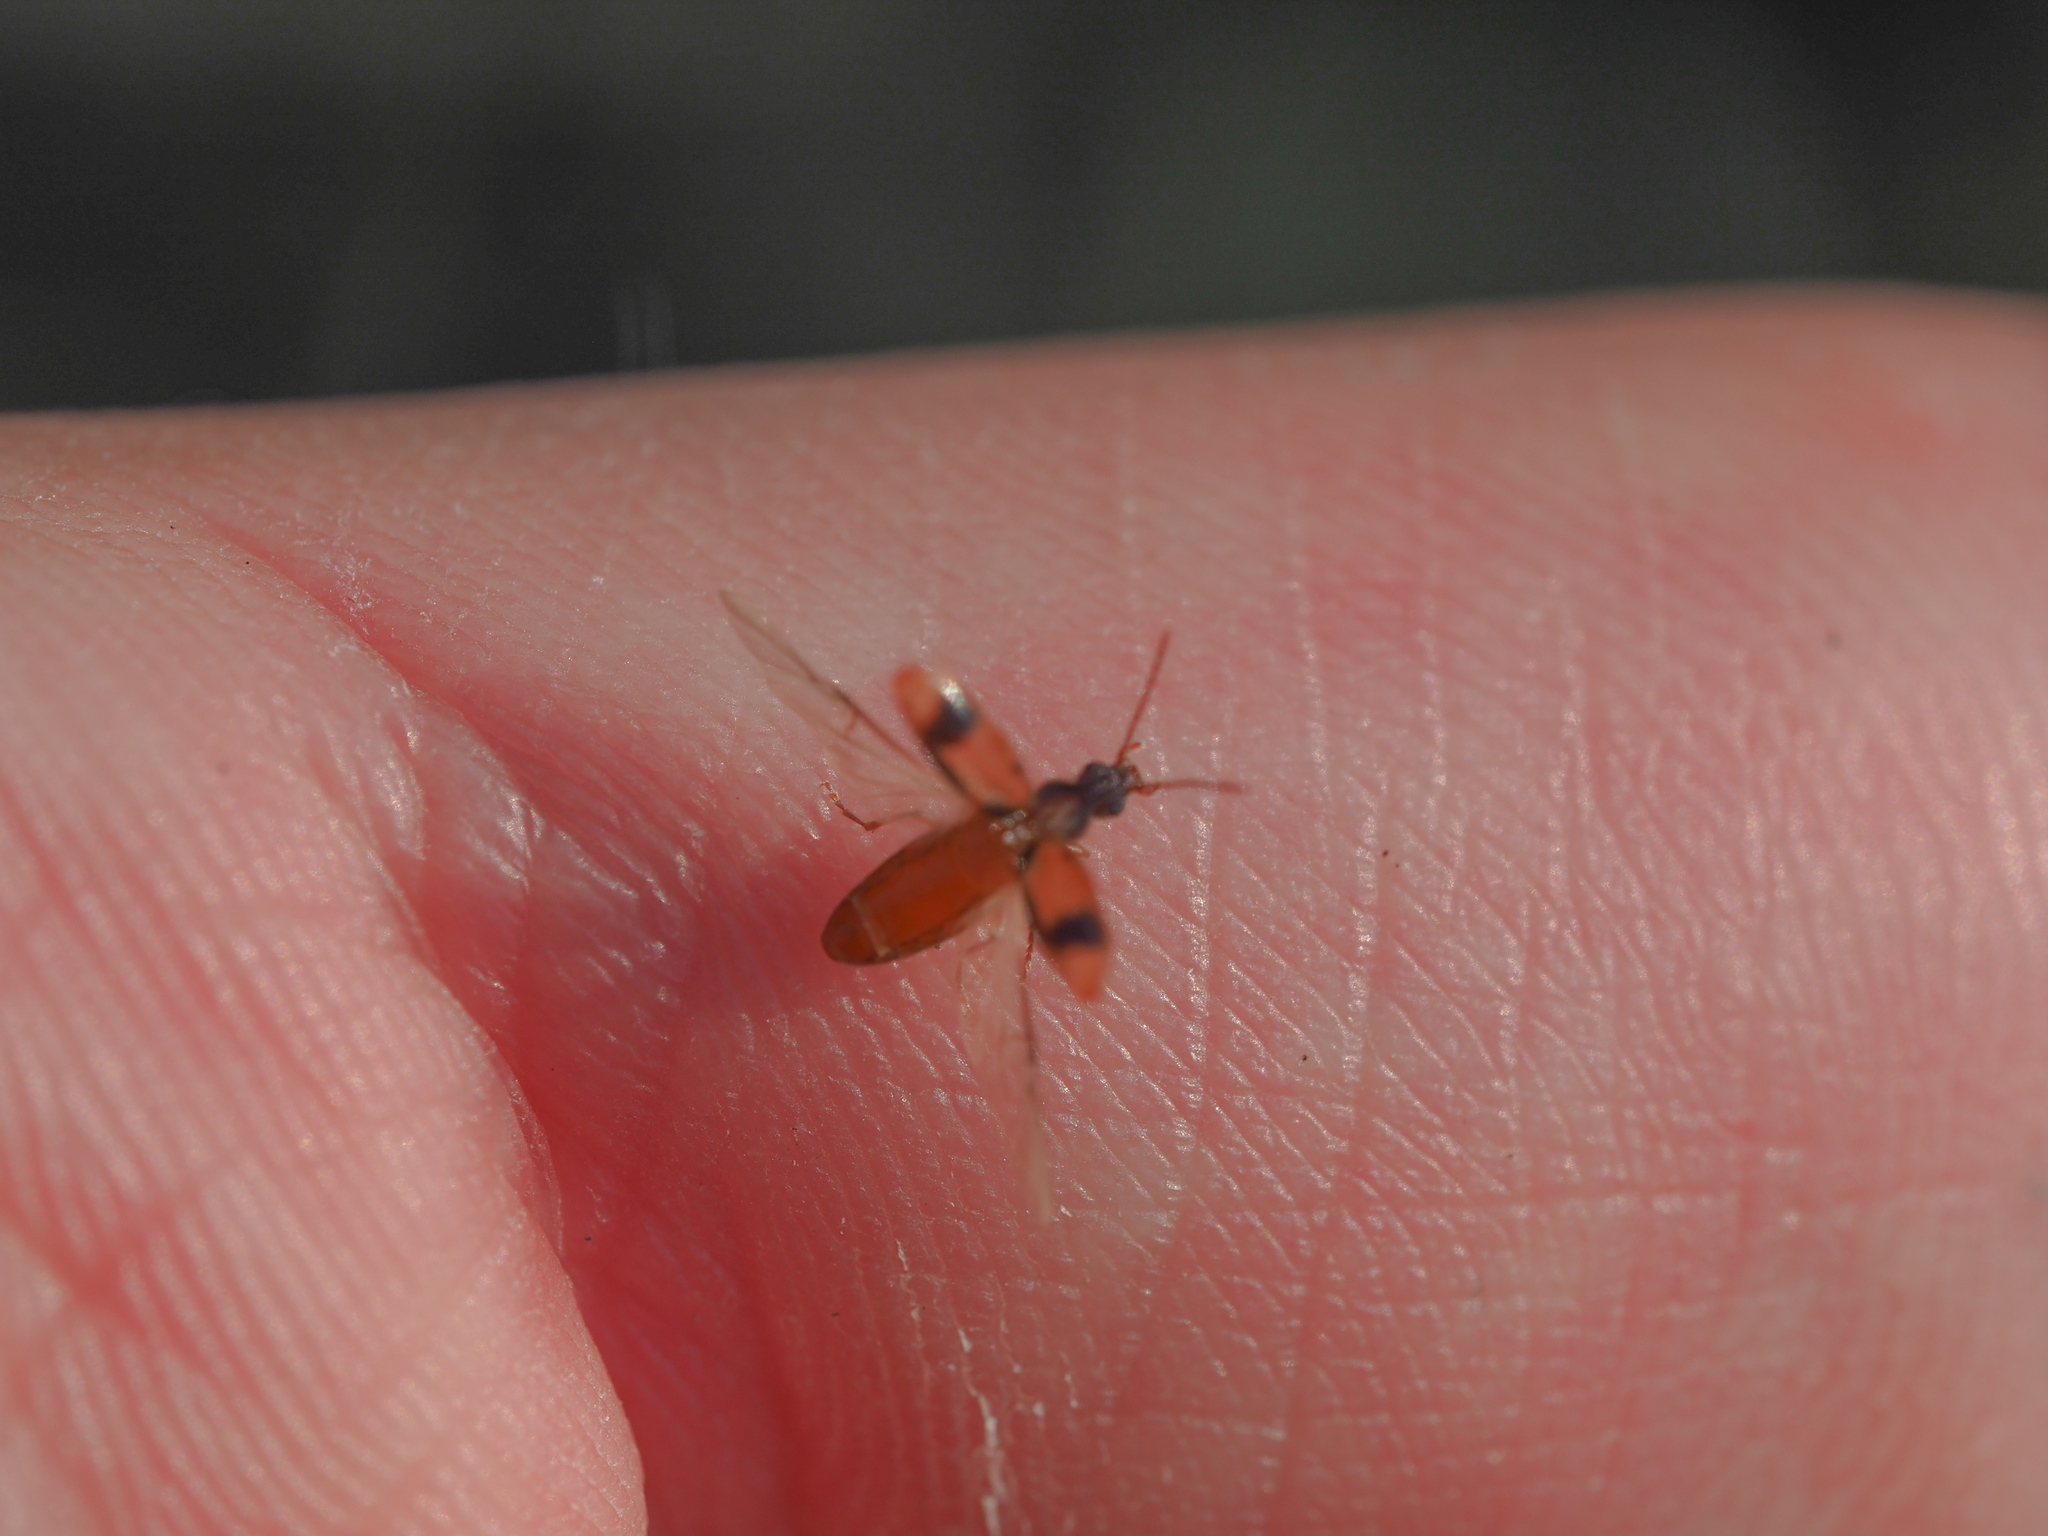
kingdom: Animalia
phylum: Arthropoda
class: Insecta
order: Coleoptera
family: Anthicidae
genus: Notoxus
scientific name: Notoxus monoceros
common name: Monoceros beetle
